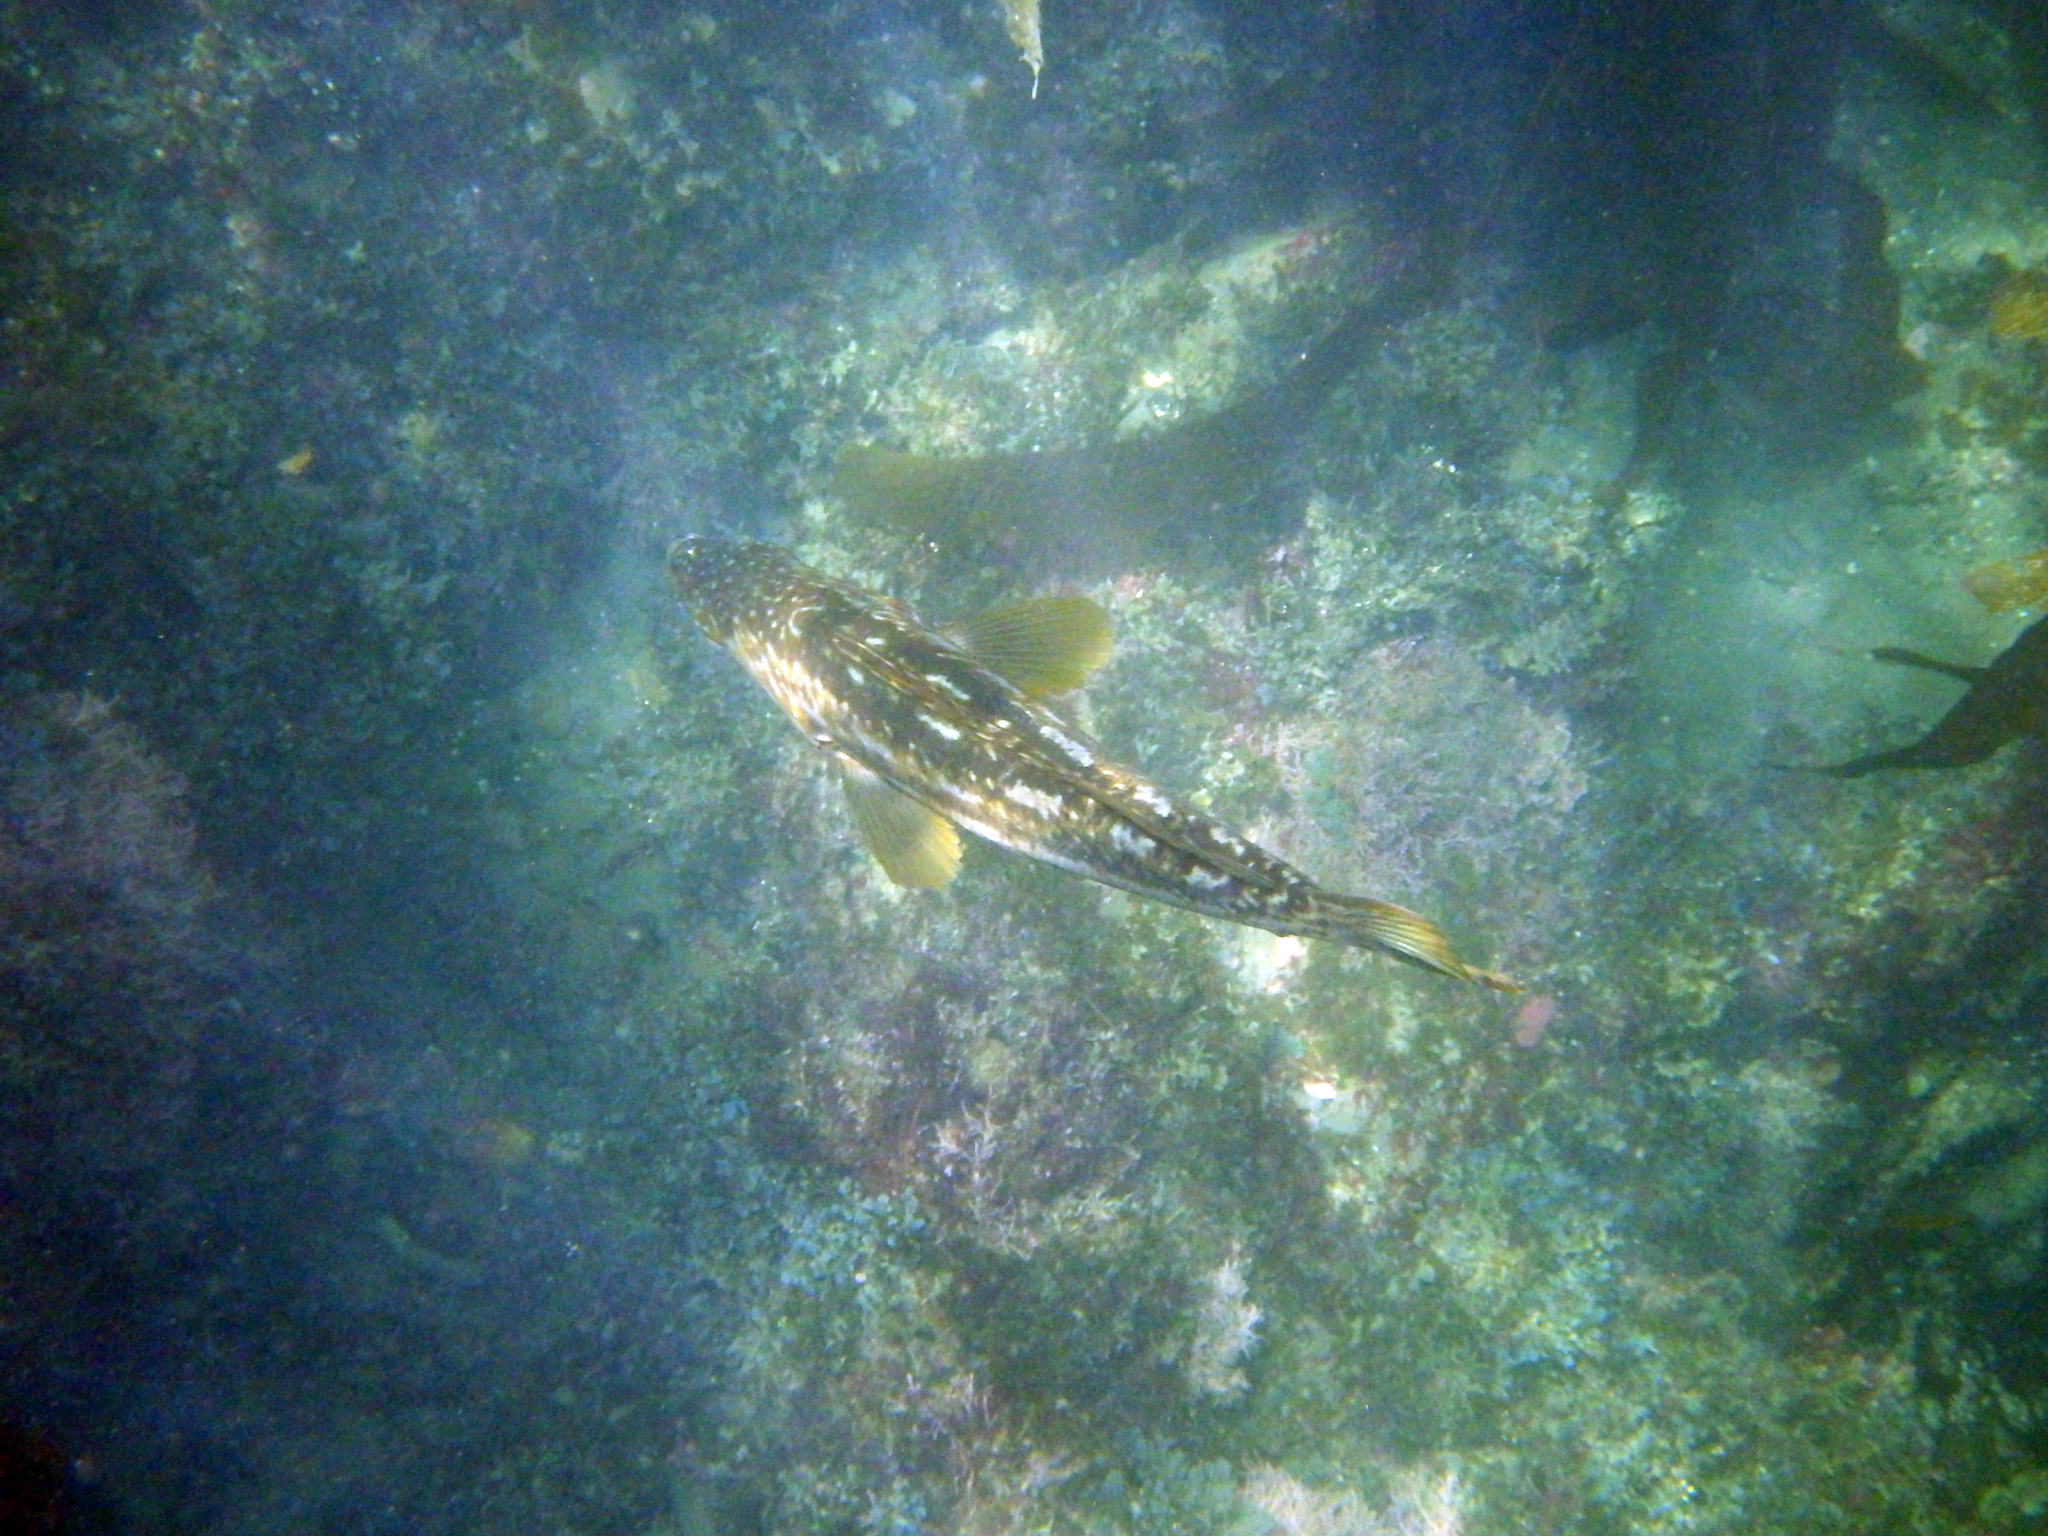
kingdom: Animalia
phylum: Chordata
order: Perciformes
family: Serranidae
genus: Paralabrax
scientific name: Paralabrax clathratus
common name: Kelp bass
